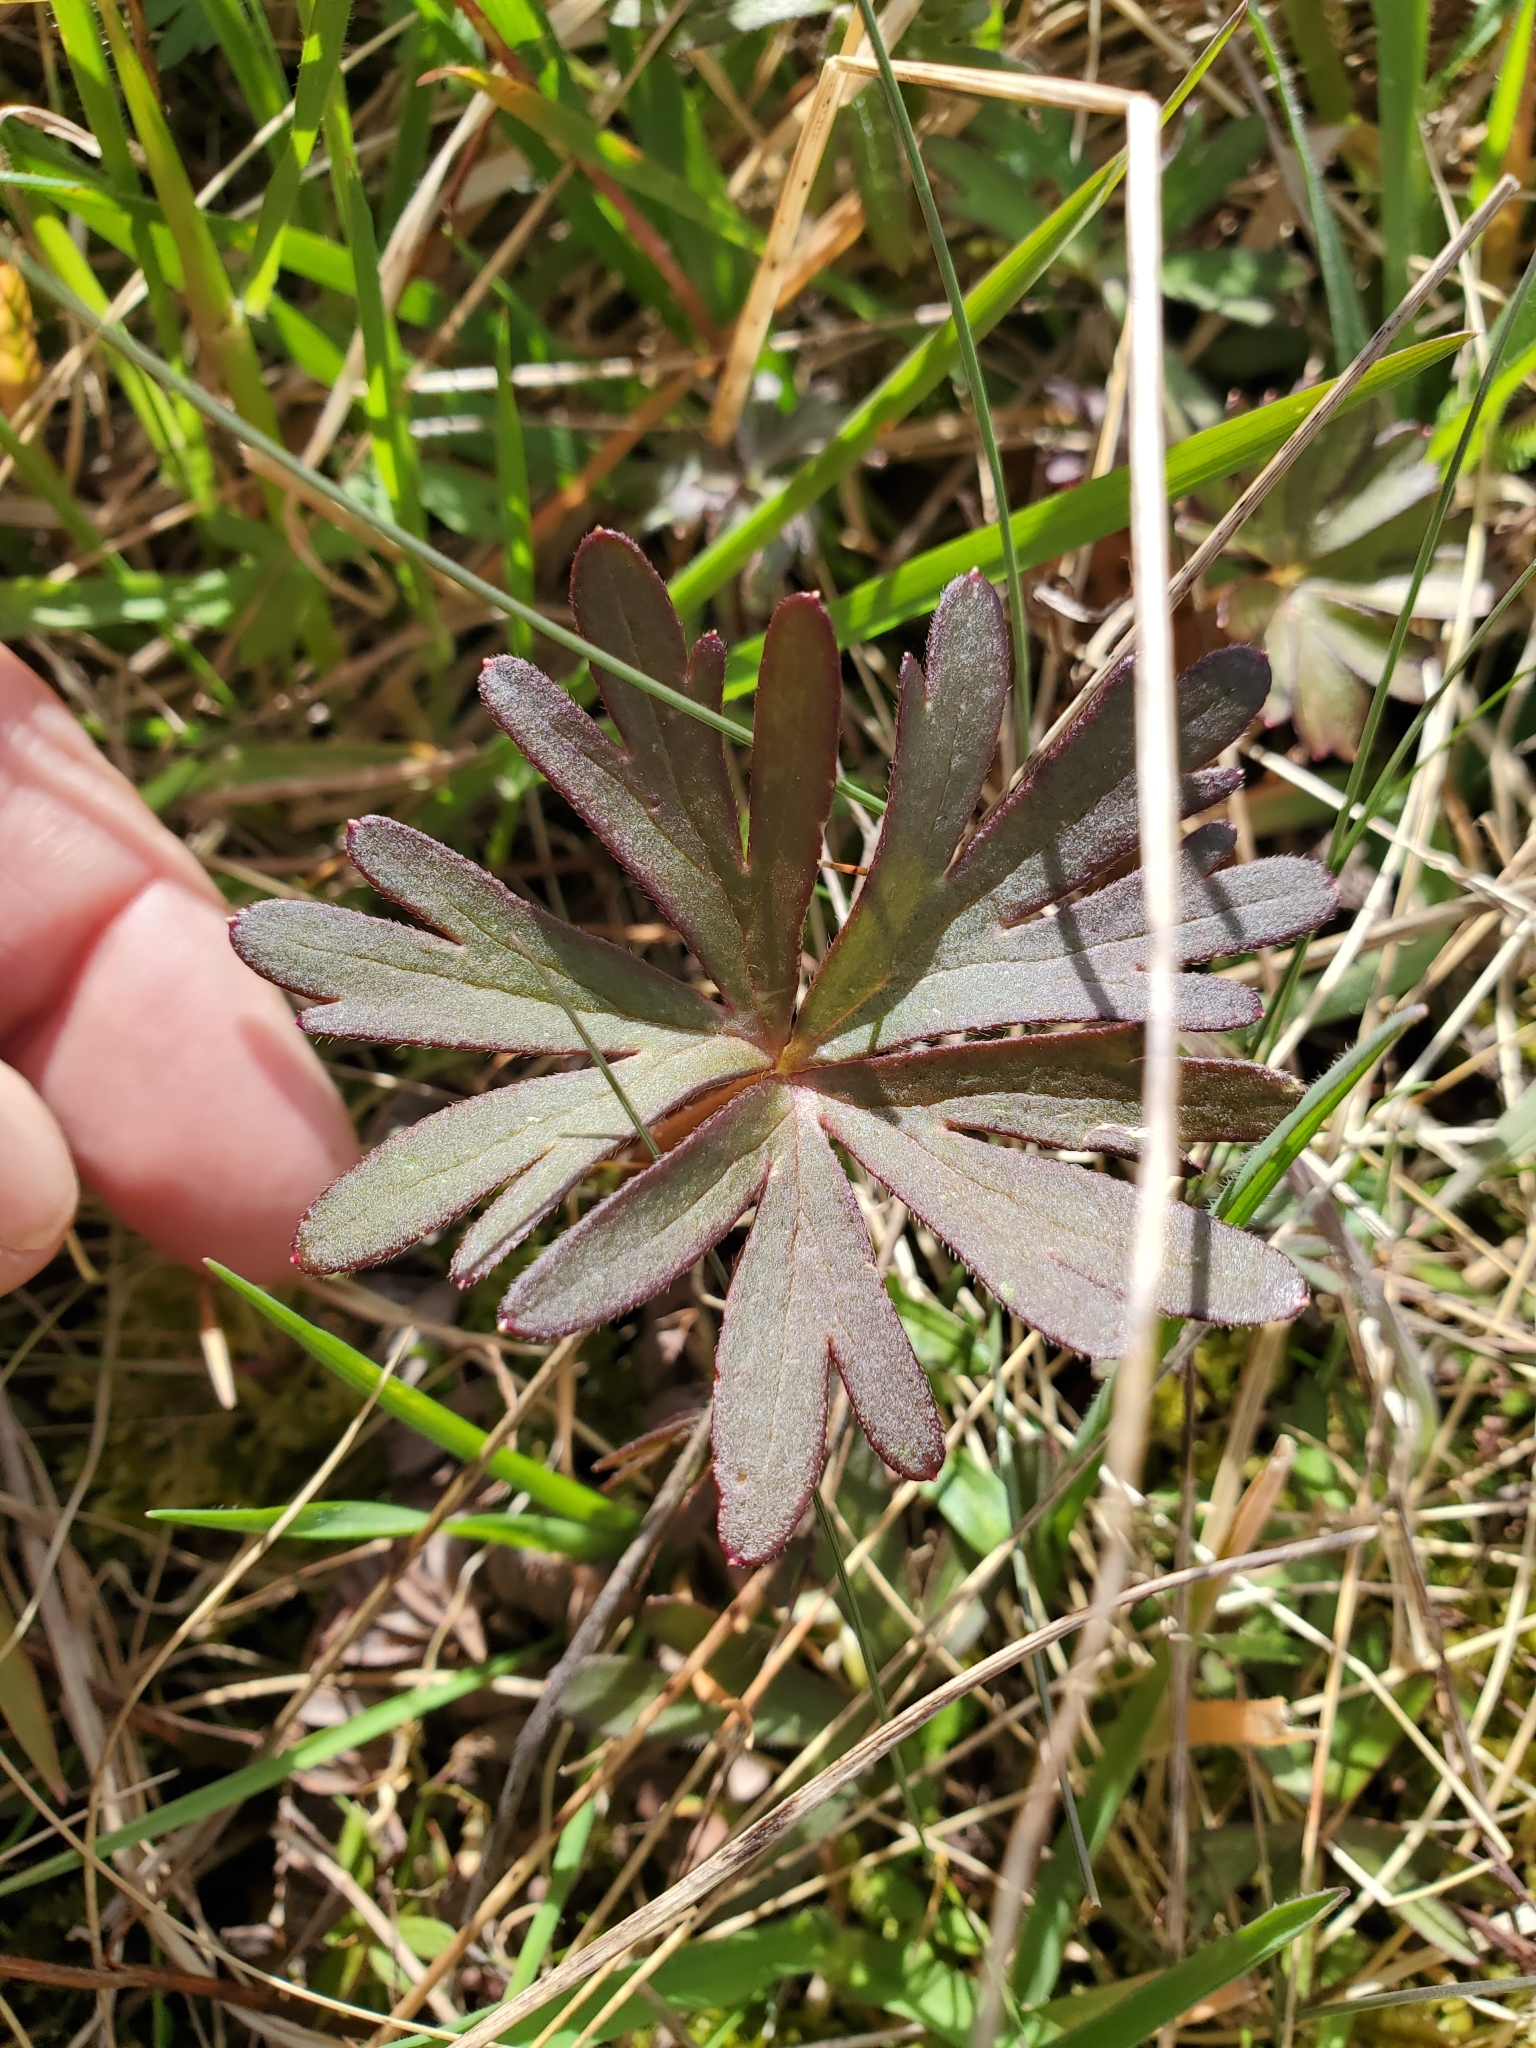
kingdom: Plantae
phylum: Tracheophyta
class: Magnoliopsida
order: Ranunculales
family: Ranunculaceae
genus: Delphinium
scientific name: Delphinium menziesii
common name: Menzies's larkspur
